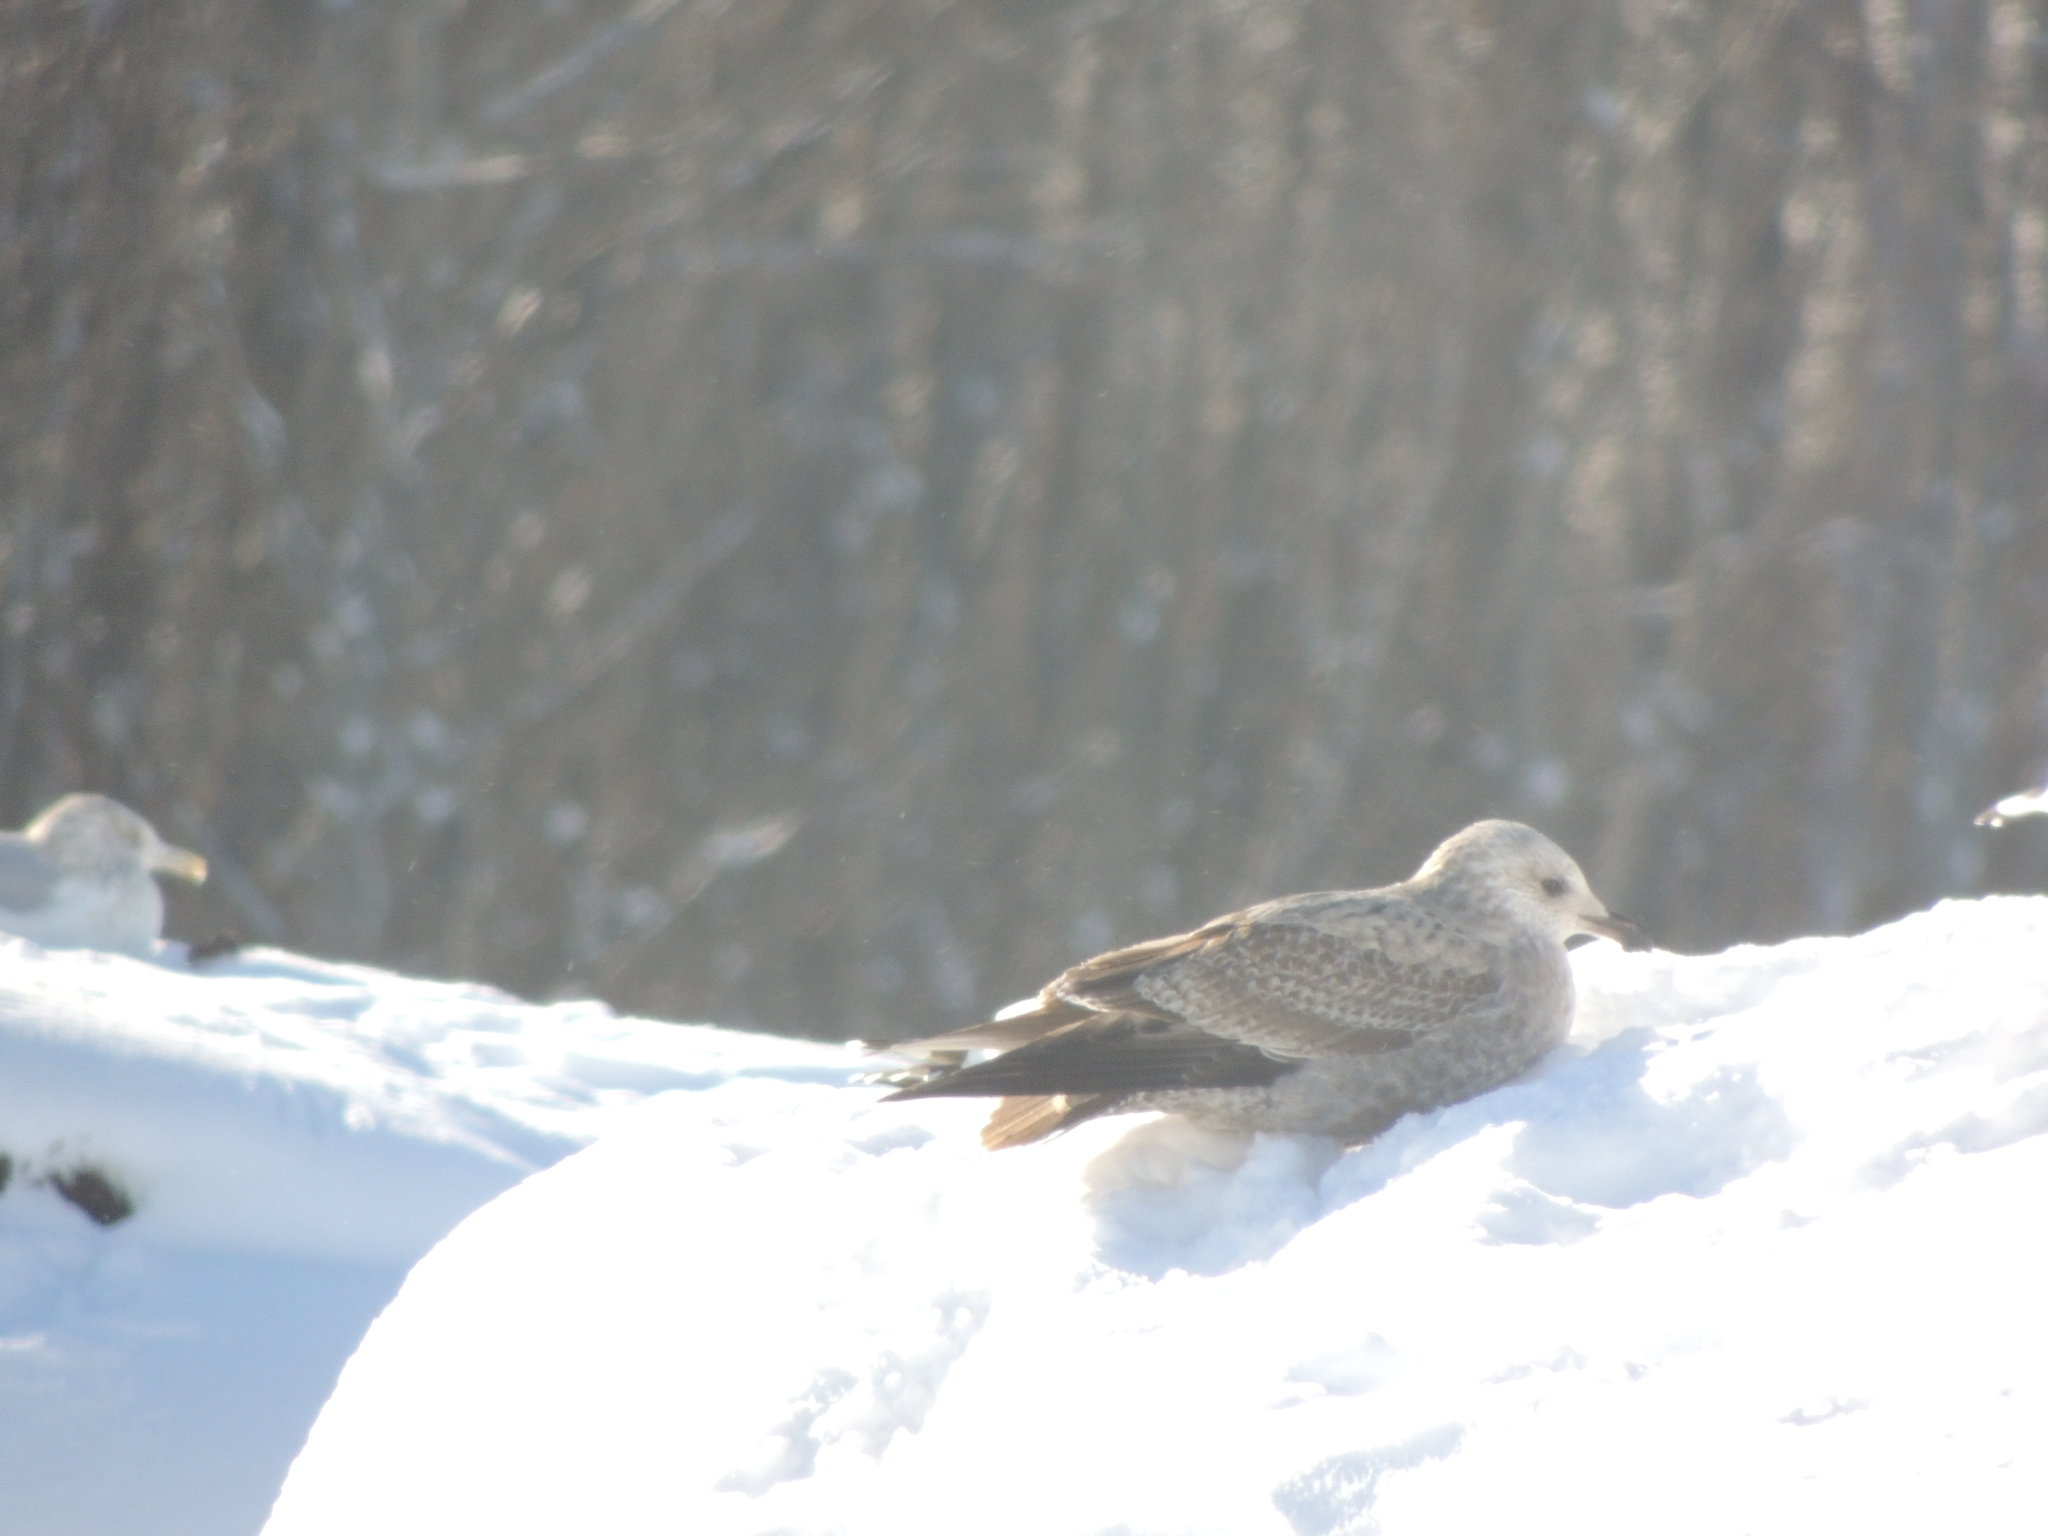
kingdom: Animalia
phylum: Chordata
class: Aves
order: Charadriiformes
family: Laridae
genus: Larus
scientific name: Larus argentatus
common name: Herring gull
